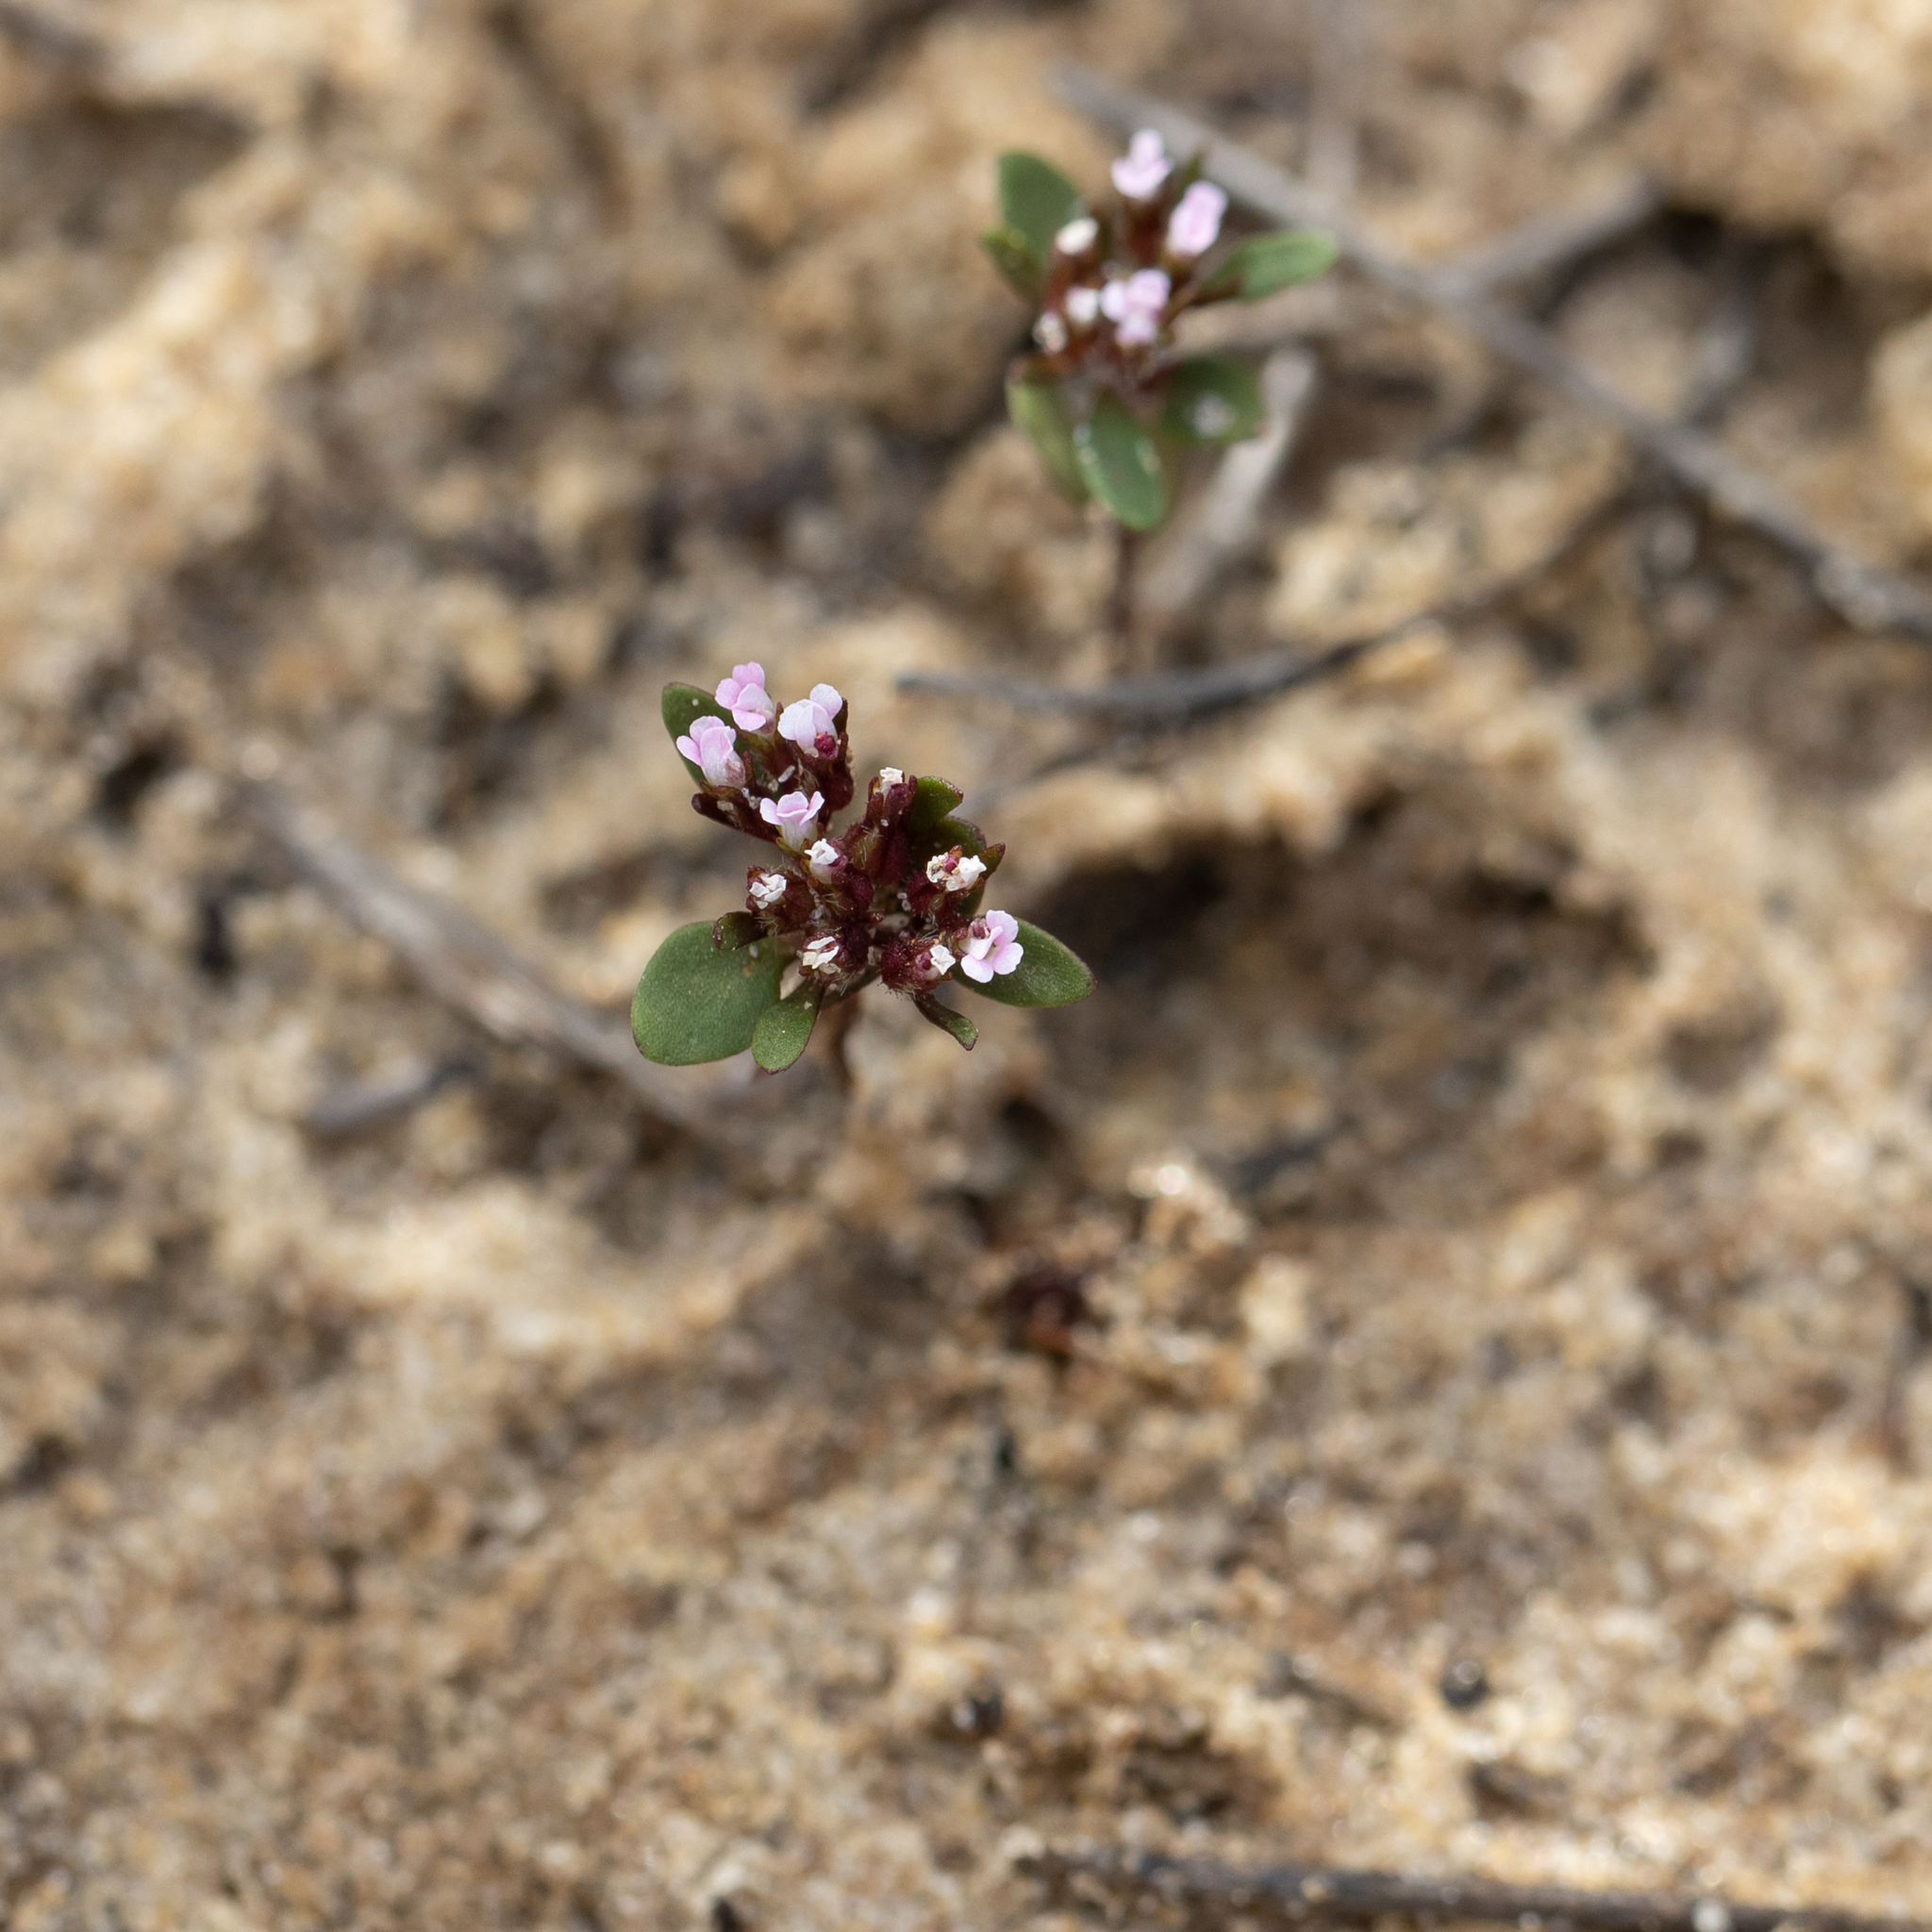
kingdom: Plantae
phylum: Tracheophyta
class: Magnoliopsida
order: Asterales
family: Stylidiaceae
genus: Levenhookia
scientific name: Levenhookia pusilla
